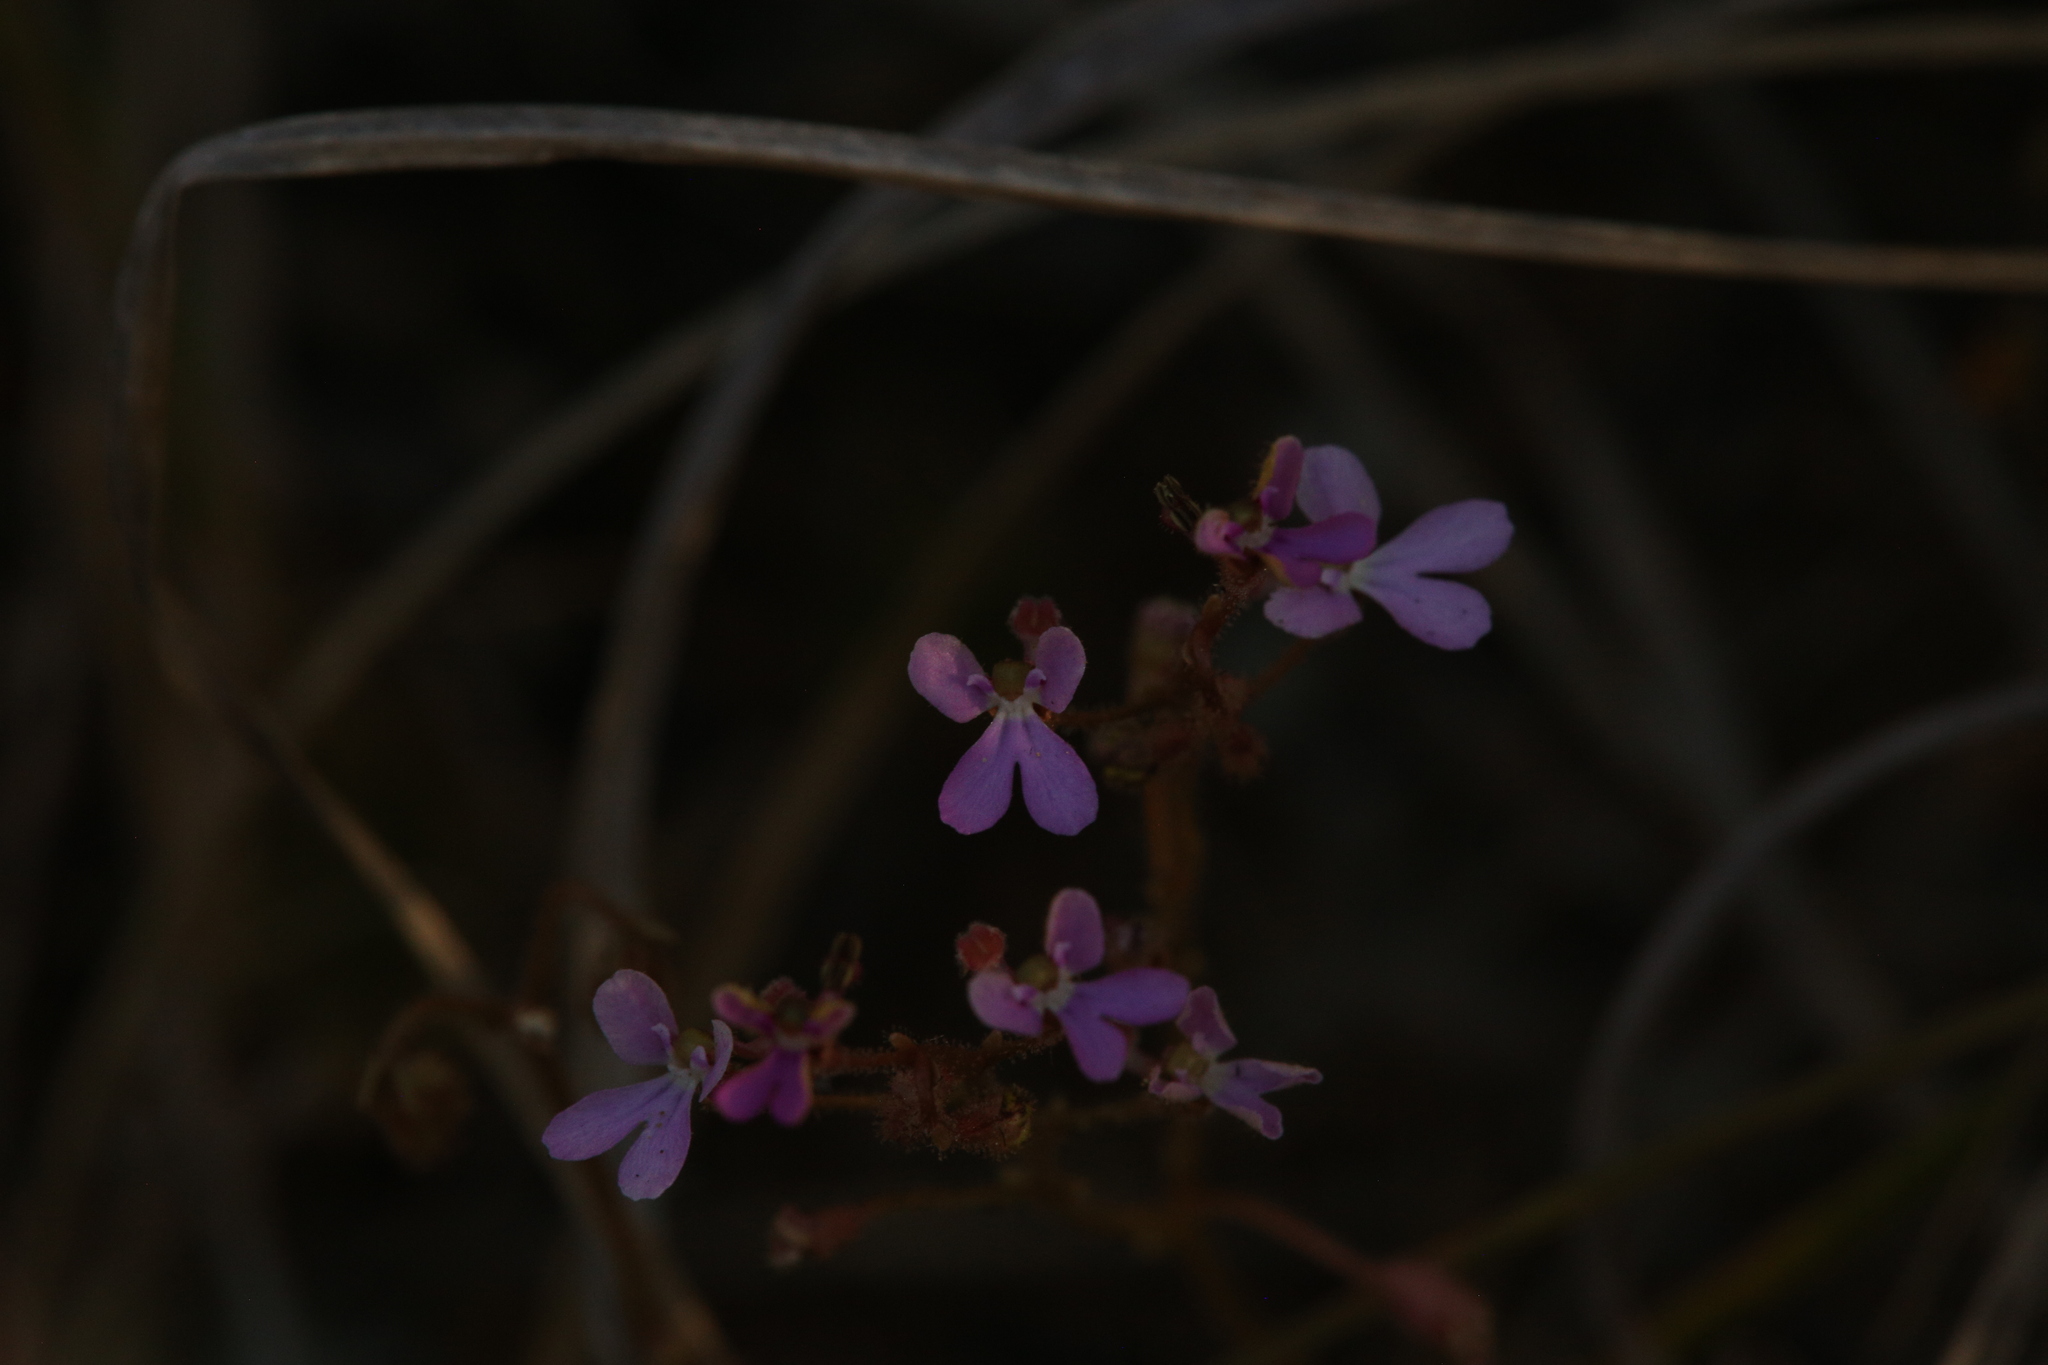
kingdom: Plantae
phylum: Tracheophyta
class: Magnoliopsida
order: Asterales
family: Stylidiaceae
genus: Stylidium
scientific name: Stylidium pindanicum
